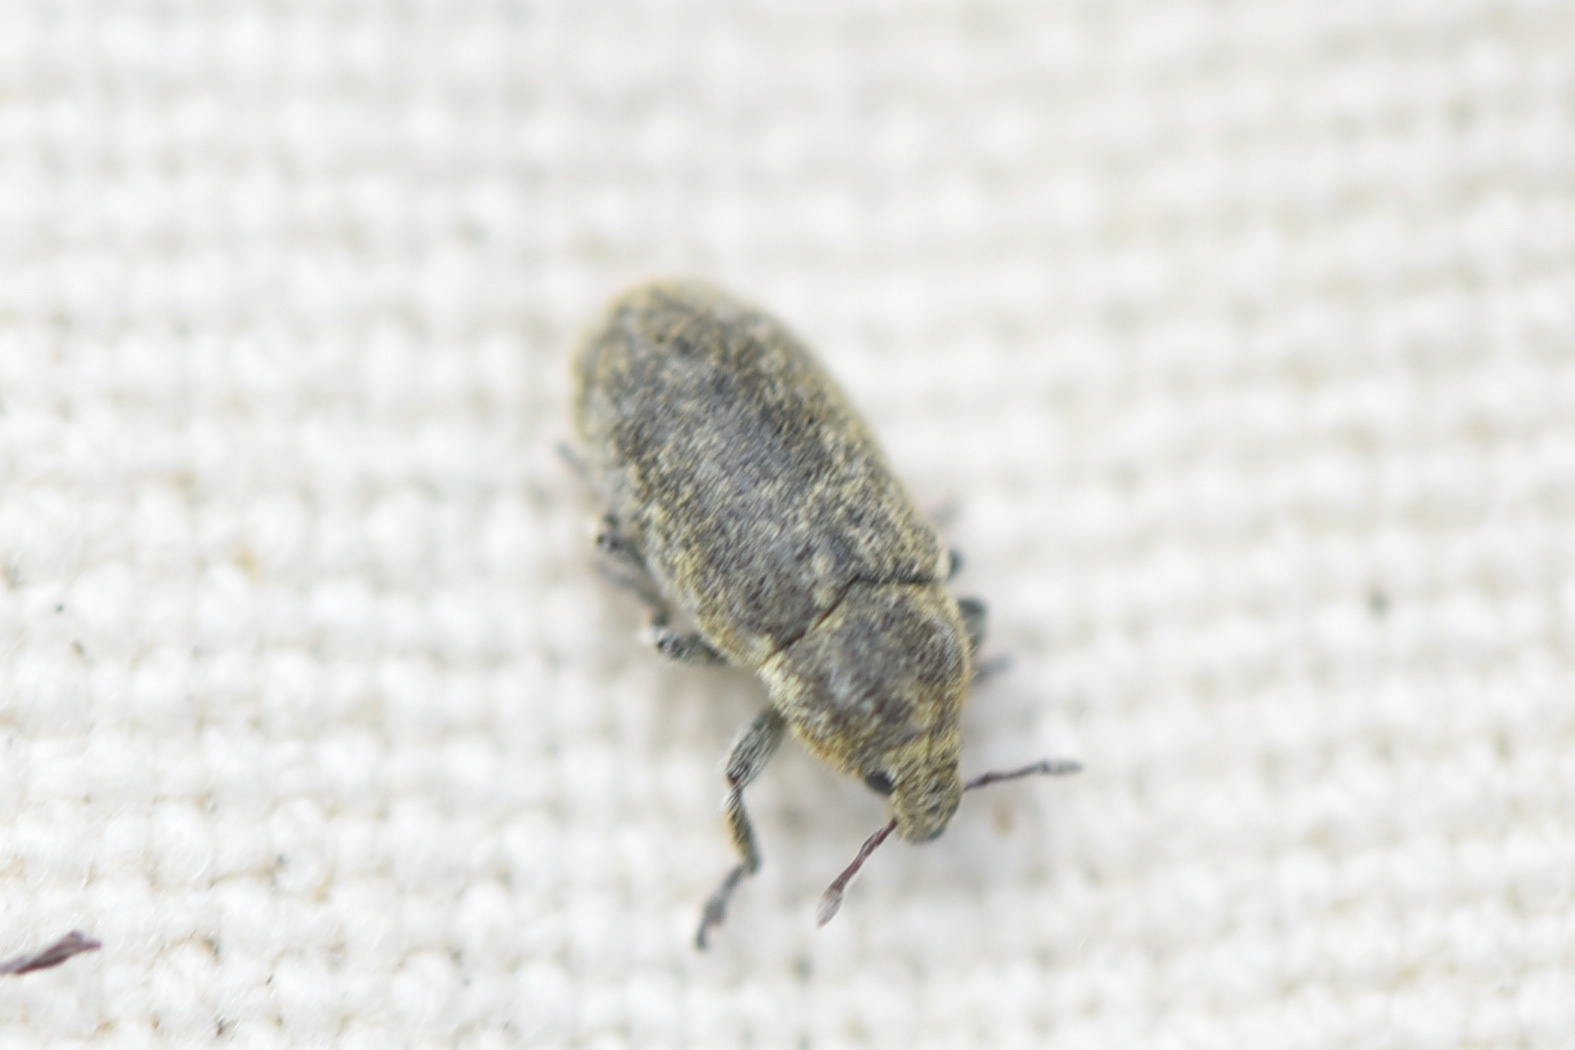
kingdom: Animalia
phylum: Arthropoda
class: Insecta
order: Coleoptera
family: Curculionidae
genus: Bangasternus
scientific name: Bangasternus fausti
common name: Broad-nosed knapweed seedhead weevil
